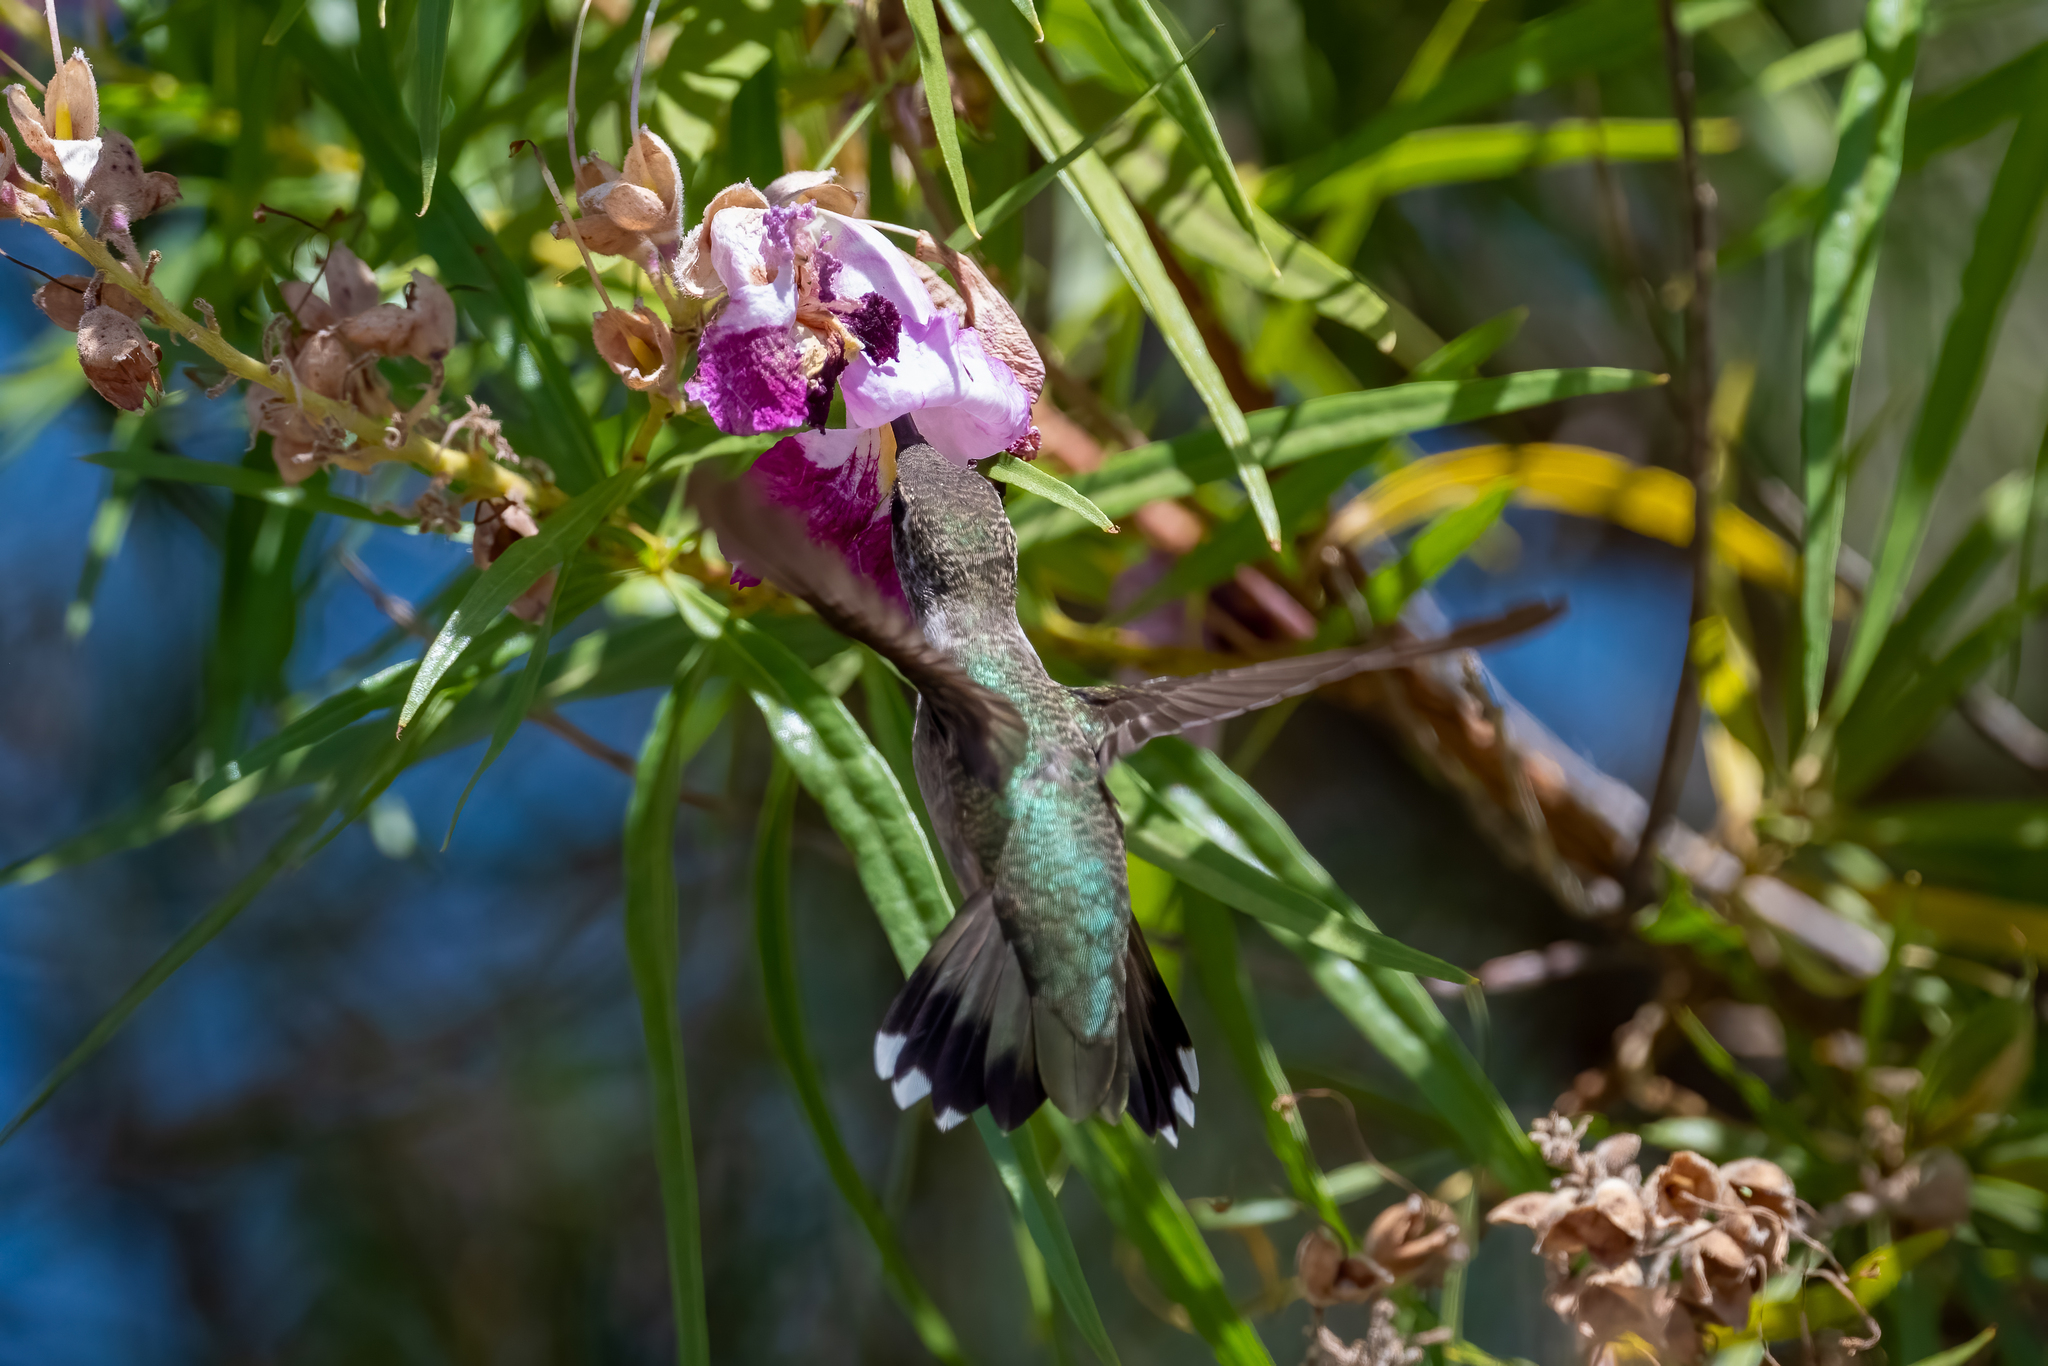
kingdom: Animalia
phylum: Chordata
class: Aves
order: Apodiformes
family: Trochilidae
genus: Archilochus
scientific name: Archilochus alexandri
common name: Black-chinned hummingbird
